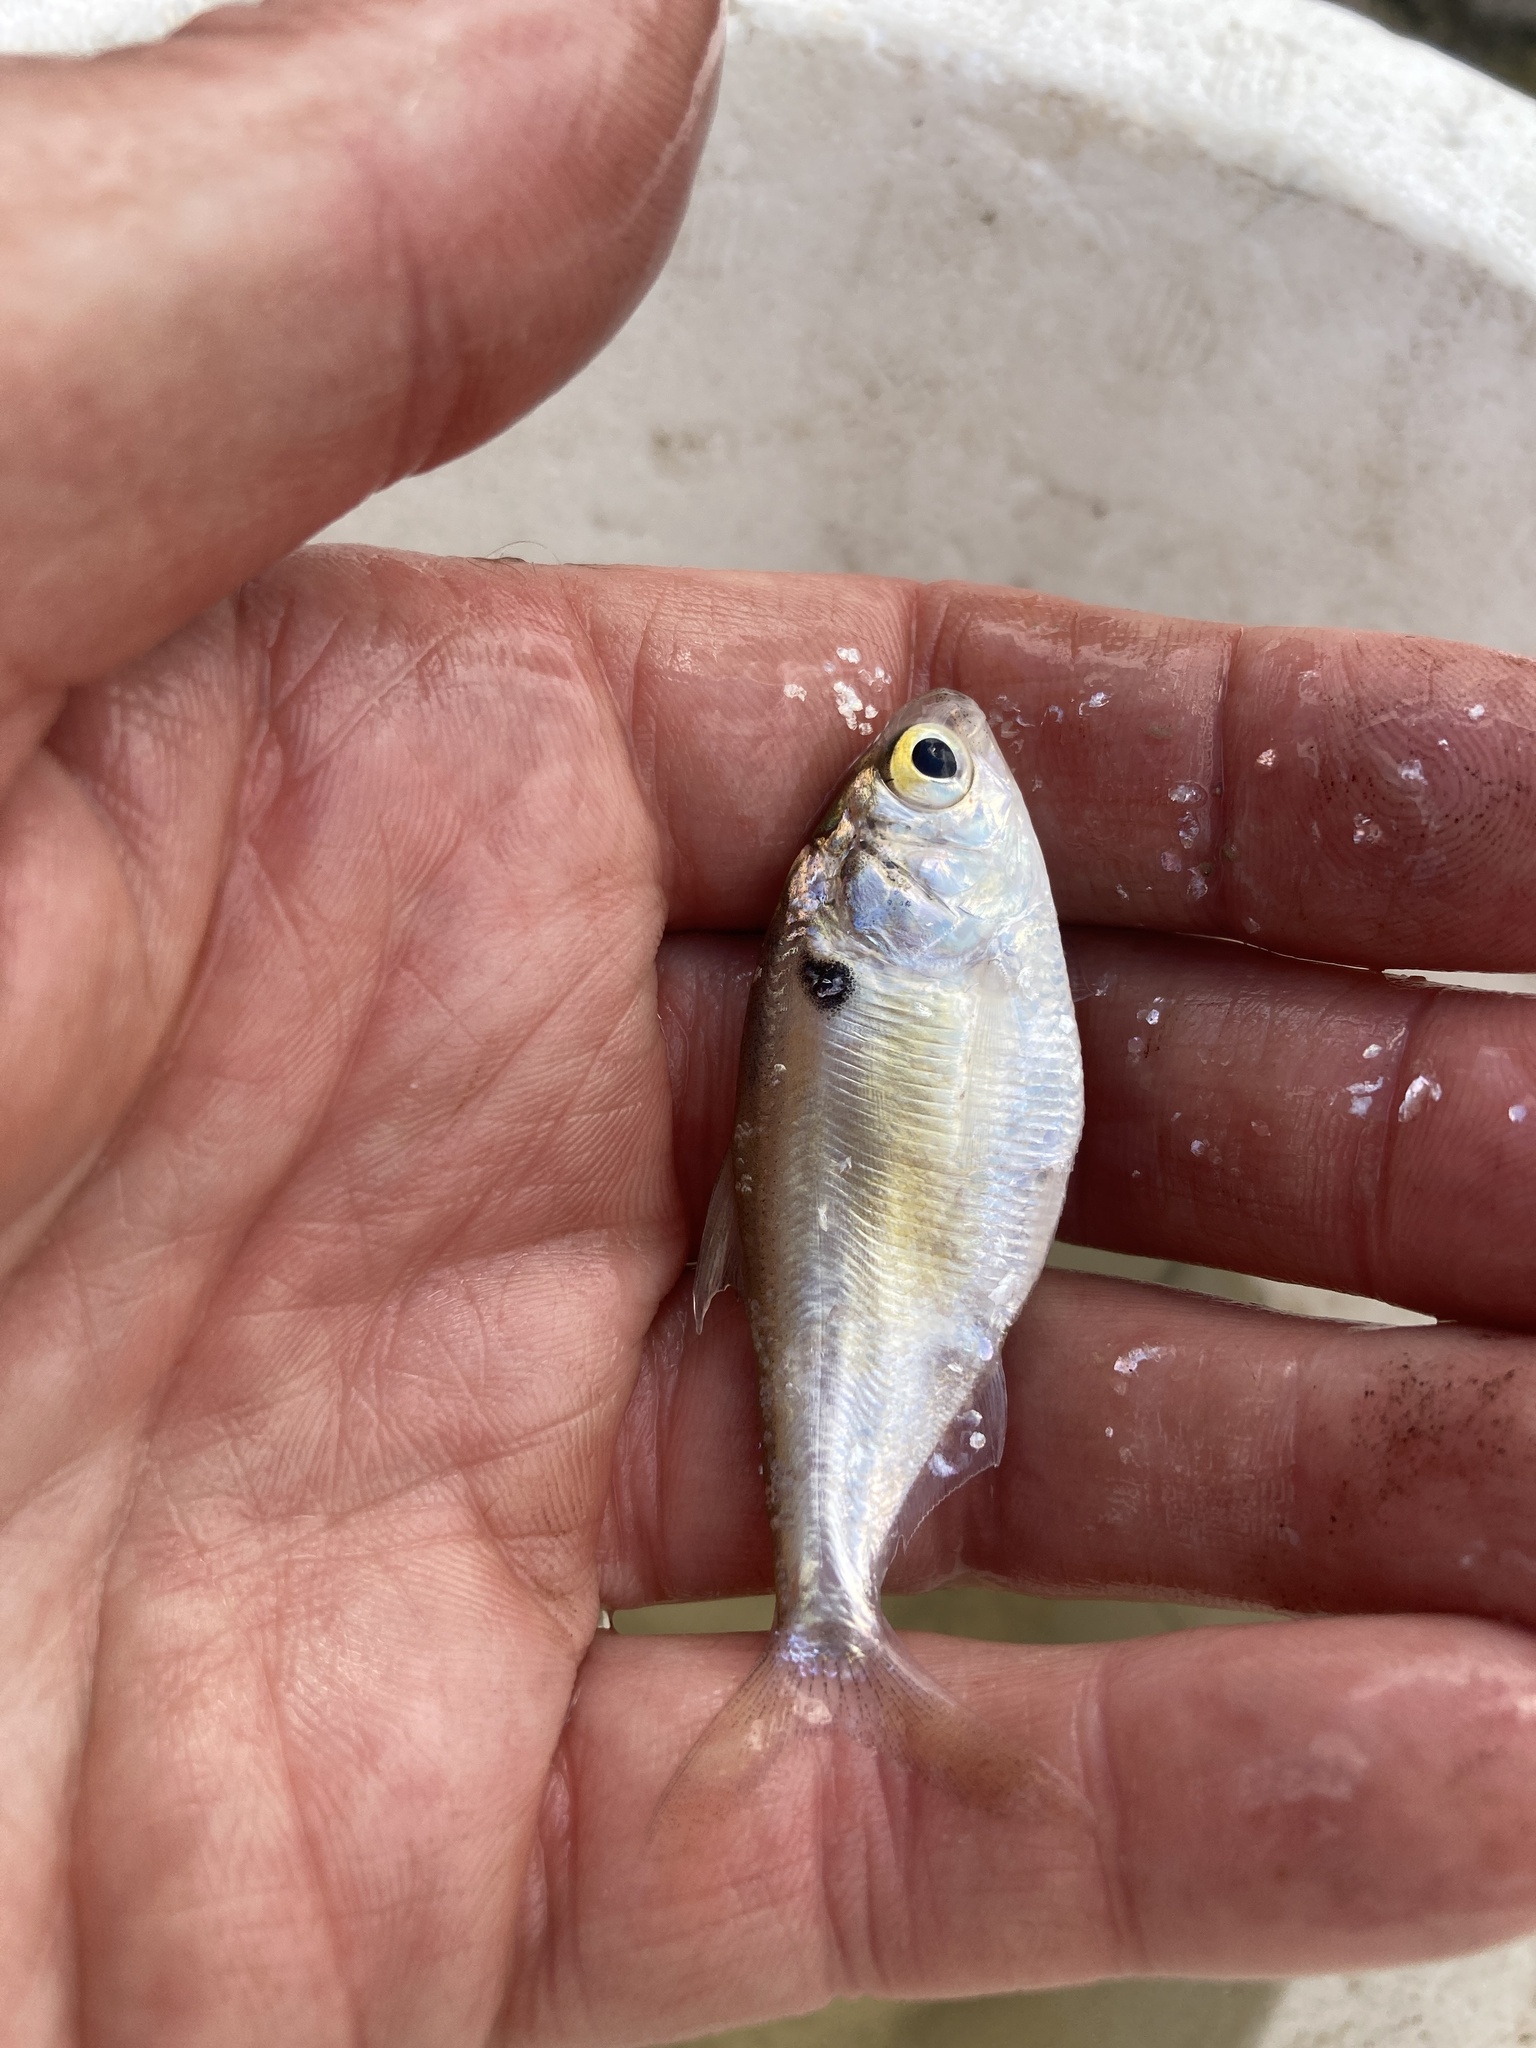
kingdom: Animalia
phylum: Chordata
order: Clupeiformes
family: Clupeidae
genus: Dorosoma
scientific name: Dorosoma cepedianum
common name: Gizzard shad
